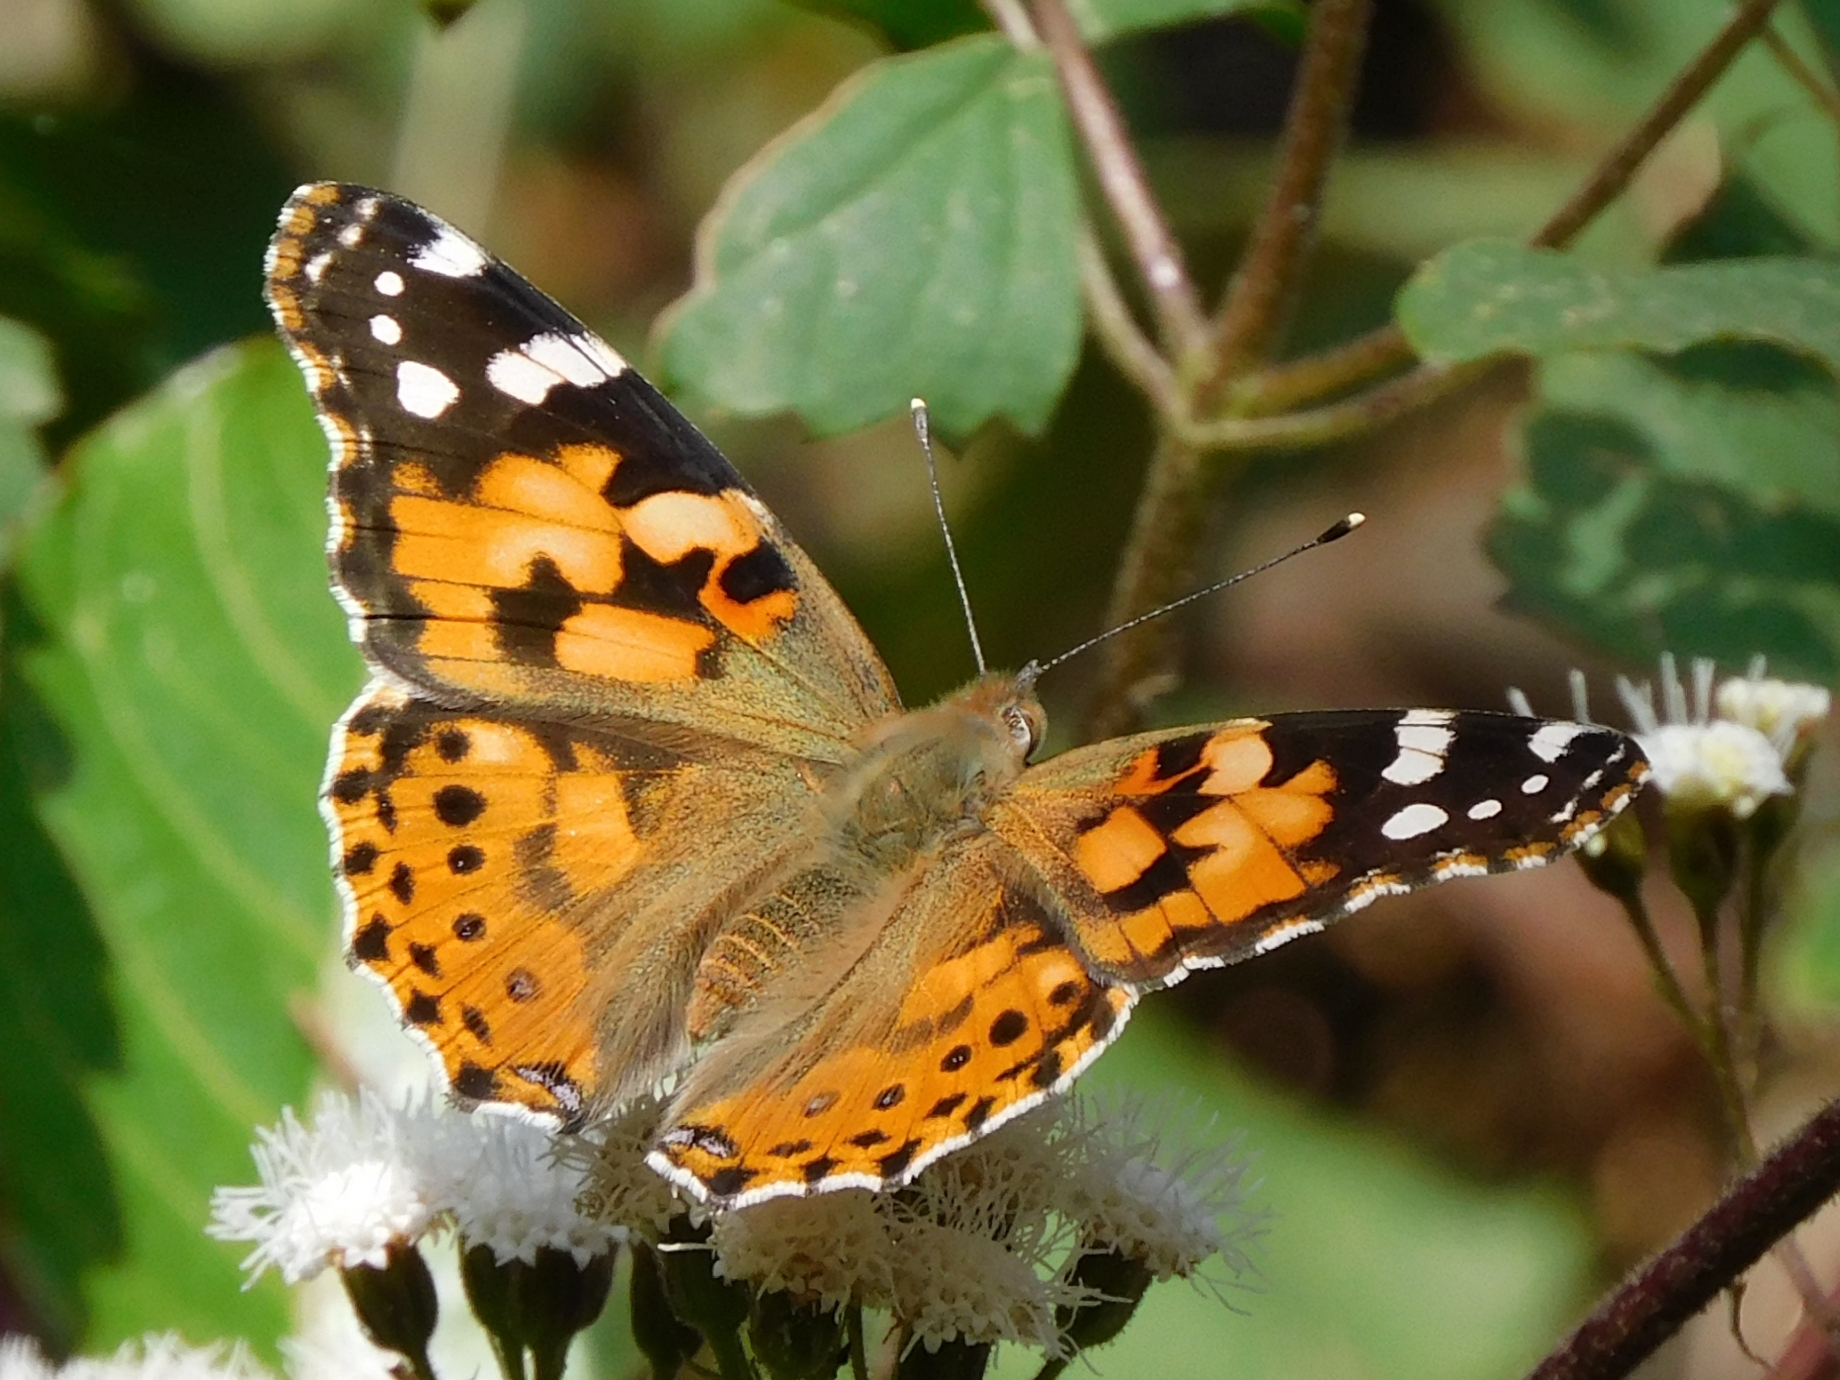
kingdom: Animalia
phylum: Arthropoda
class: Insecta
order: Lepidoptera
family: Nymphalidae
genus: Vanessa
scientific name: Vanessa cardui
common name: Painted lady
